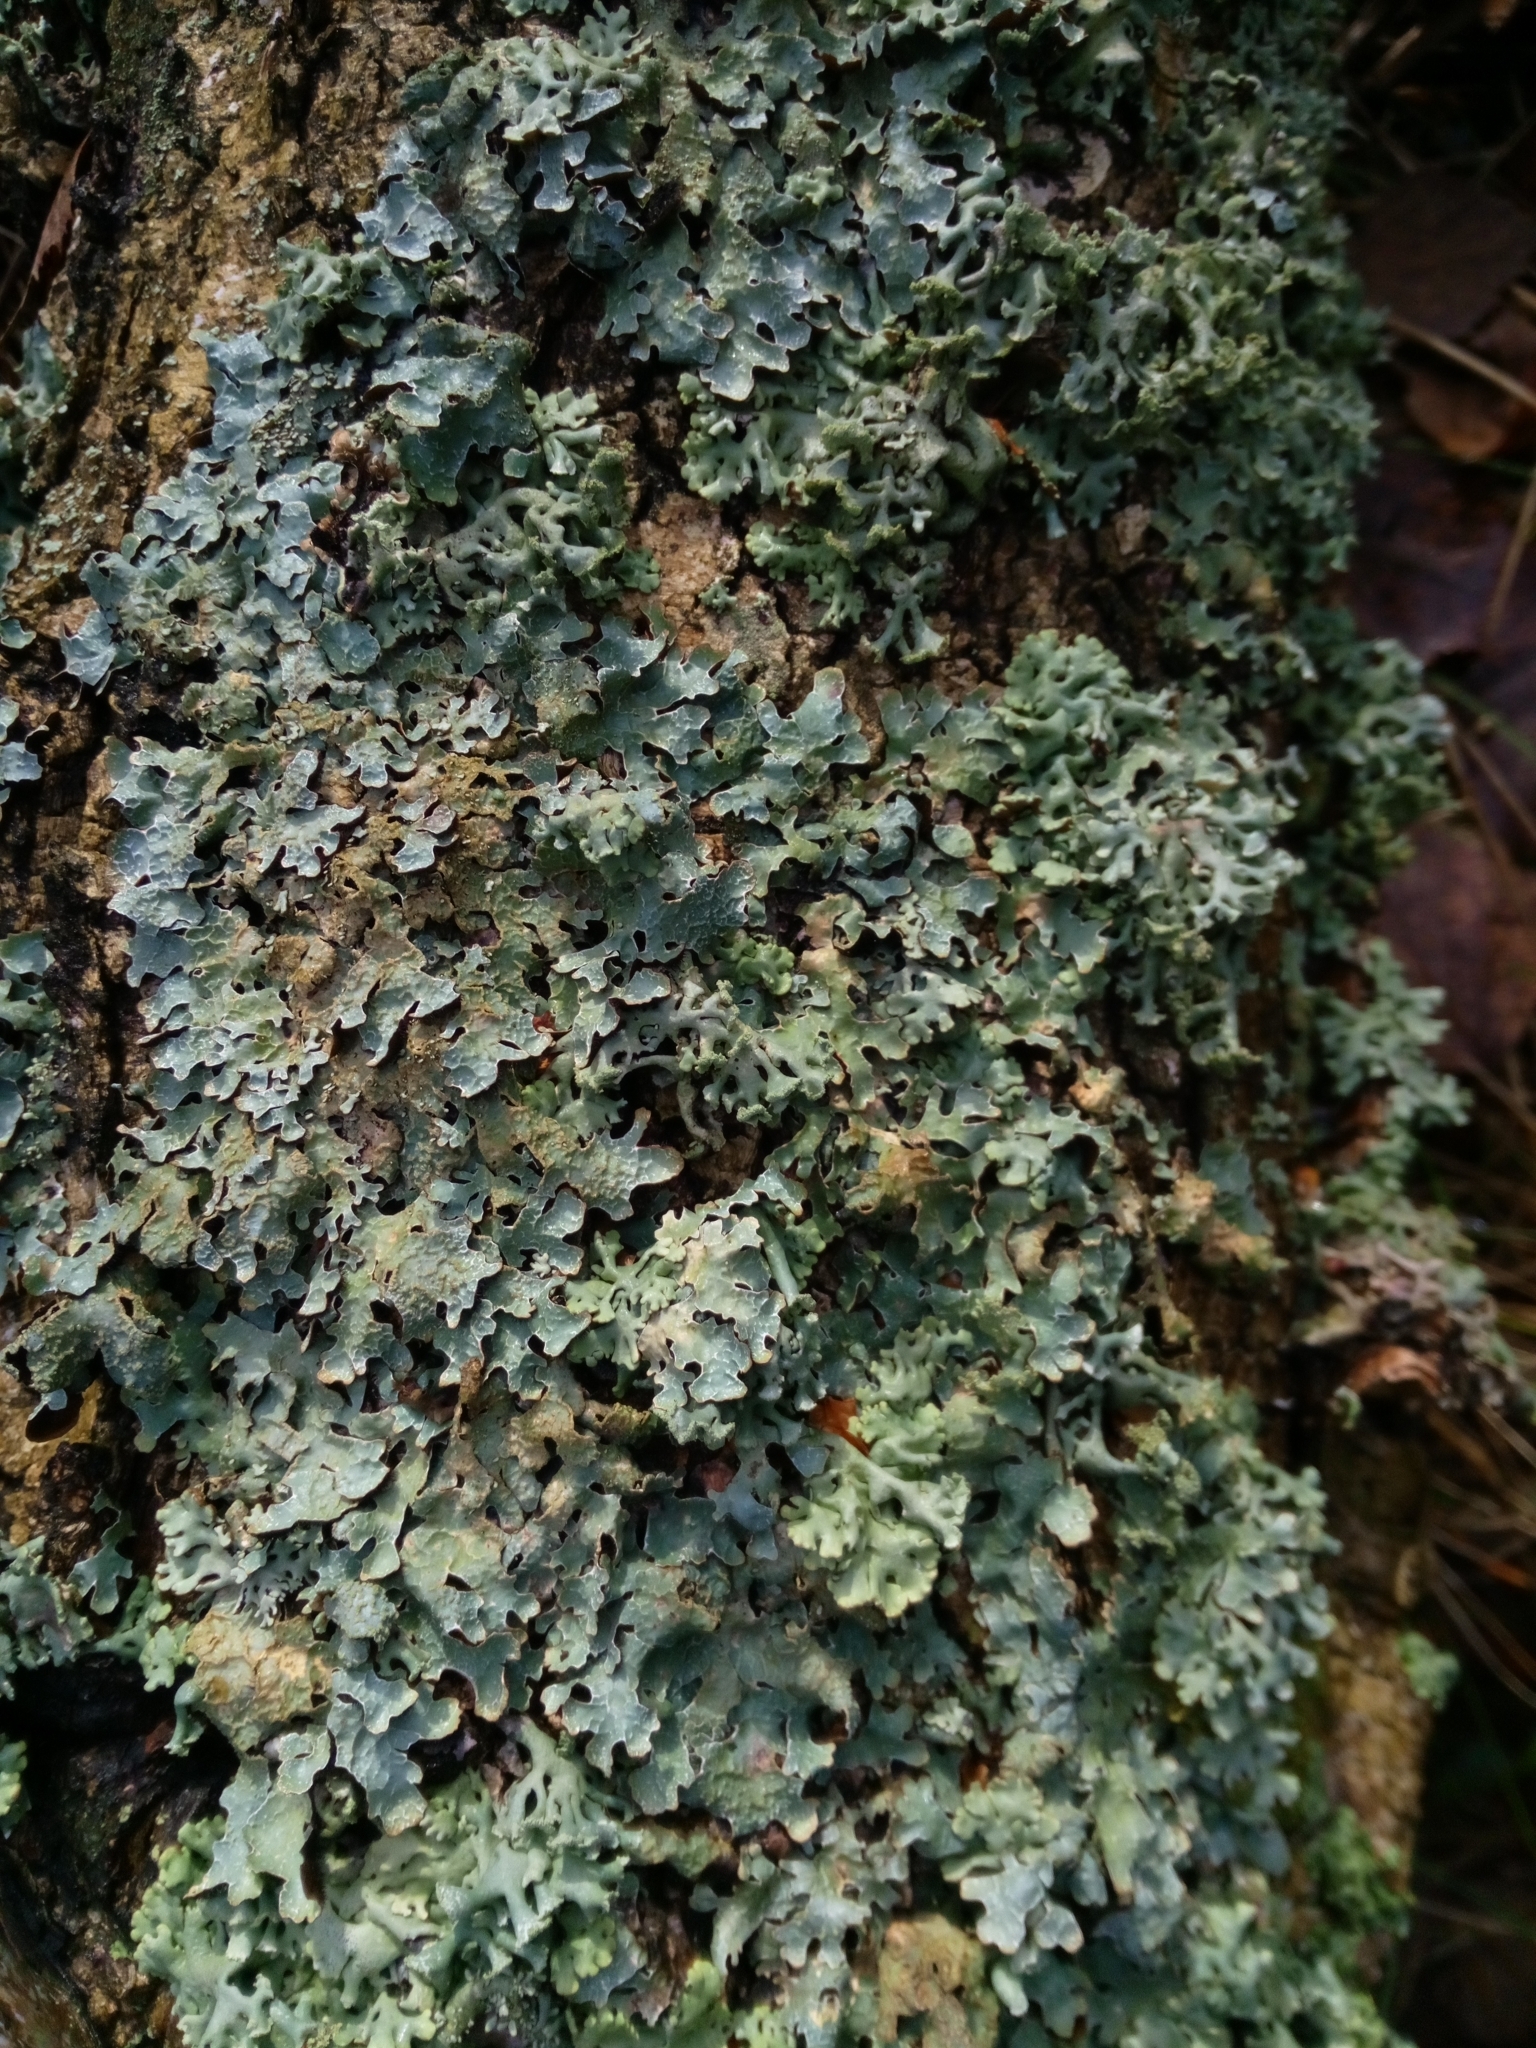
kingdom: Fungi
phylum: Ascomycota
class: Lecanoromycetes
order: Lecanorales
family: Parmeliaceae
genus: Parmelia
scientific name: Parmelia sulcata
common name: Netted shield lichen
